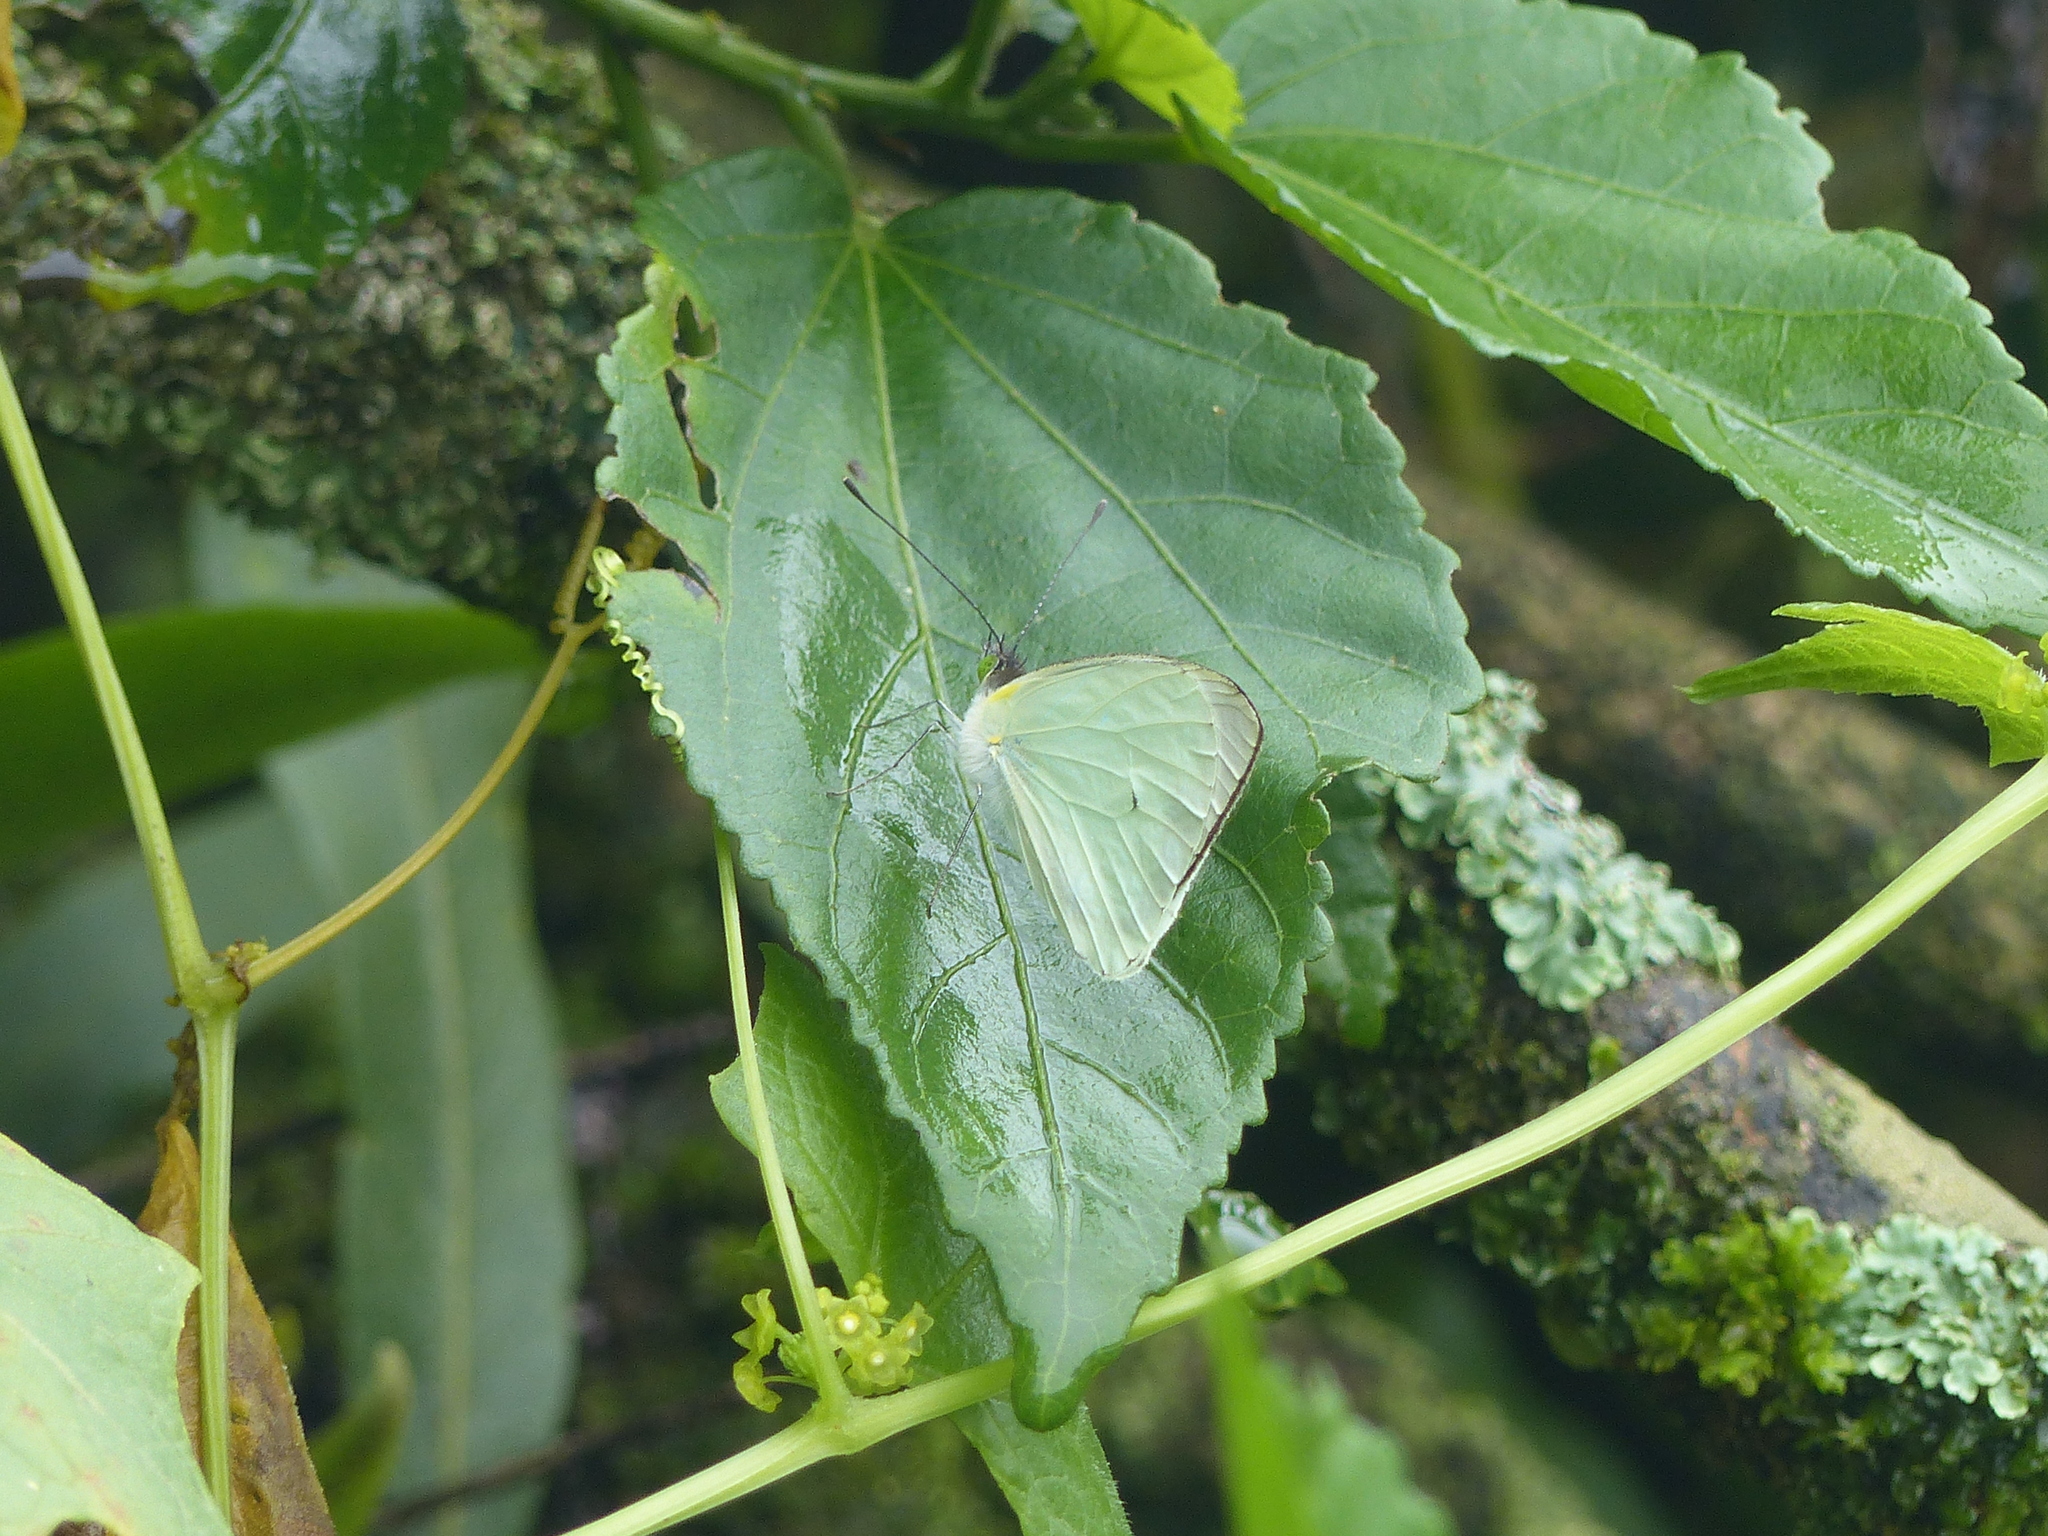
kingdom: Animalia
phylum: Arthropoda
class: Insecta
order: Lepidoptera
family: Pieridae
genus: Leptophobia
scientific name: Leptophobia aripa
